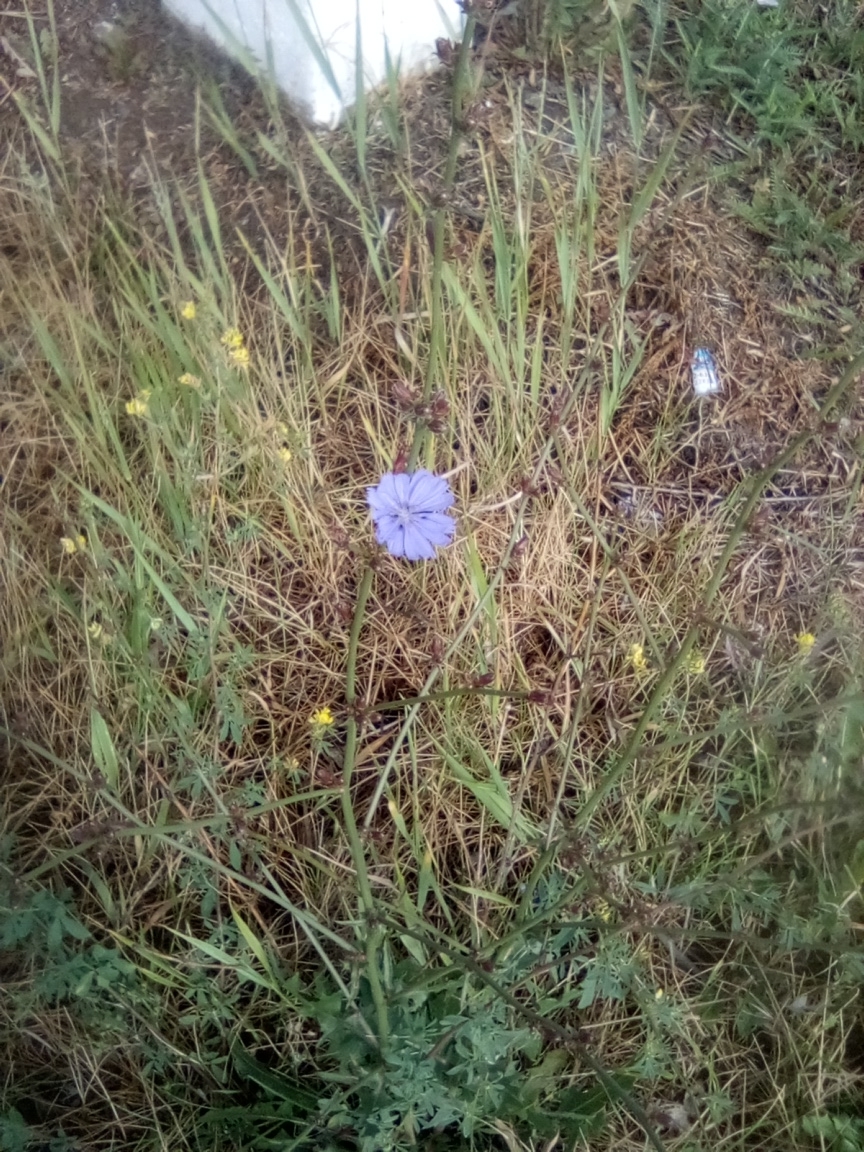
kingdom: Plantae
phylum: Tracheophyta
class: Magnoliopsida
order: Asterales
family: Asteraceae
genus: Cichorium
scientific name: Cichorium intybus
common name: Chicory
